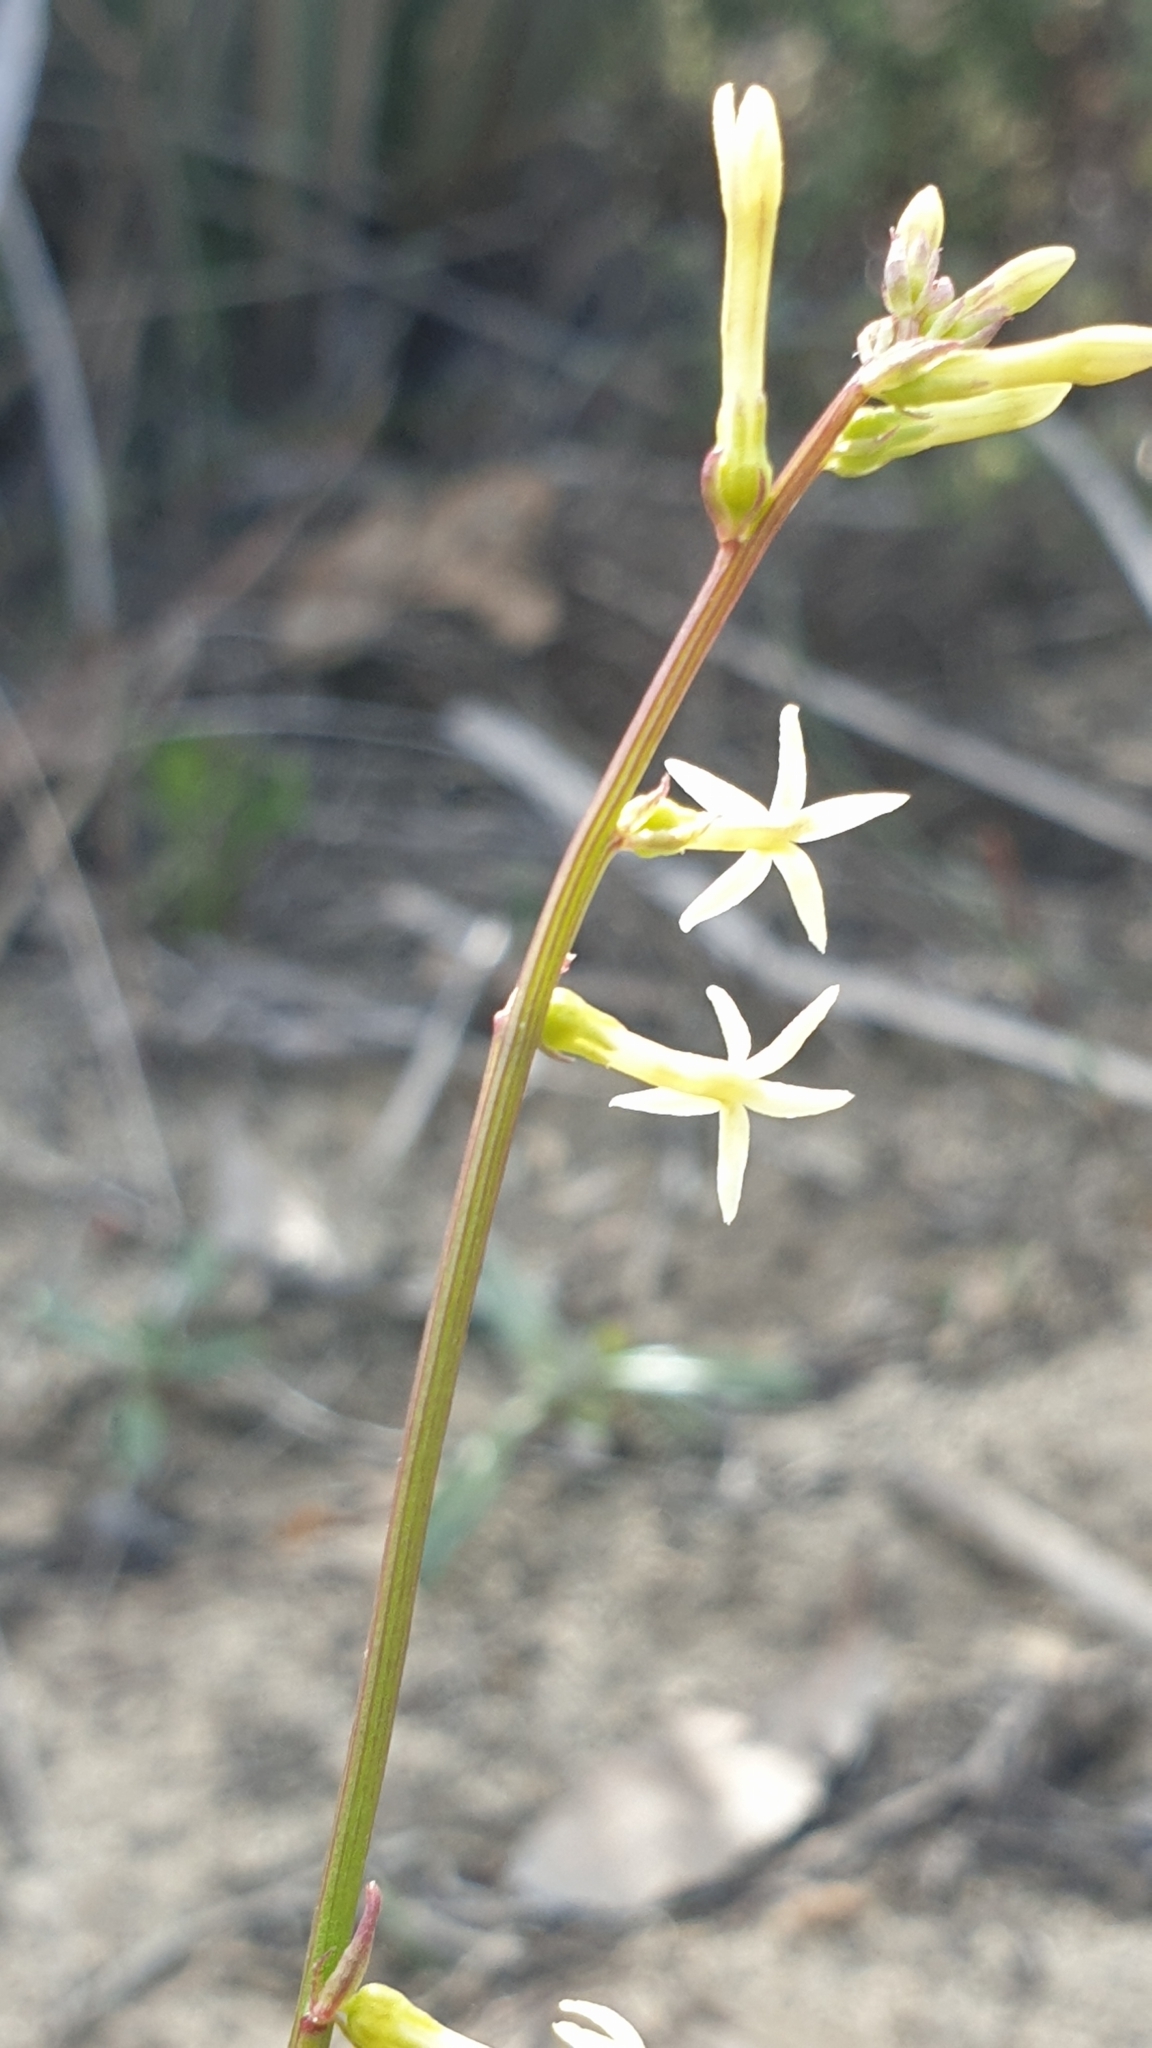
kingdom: Plantae
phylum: Tracheophyta
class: Magnoliopsida
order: Celastrales
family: Celastraceae
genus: Stackhousia
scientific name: Stackhousia monogyna
